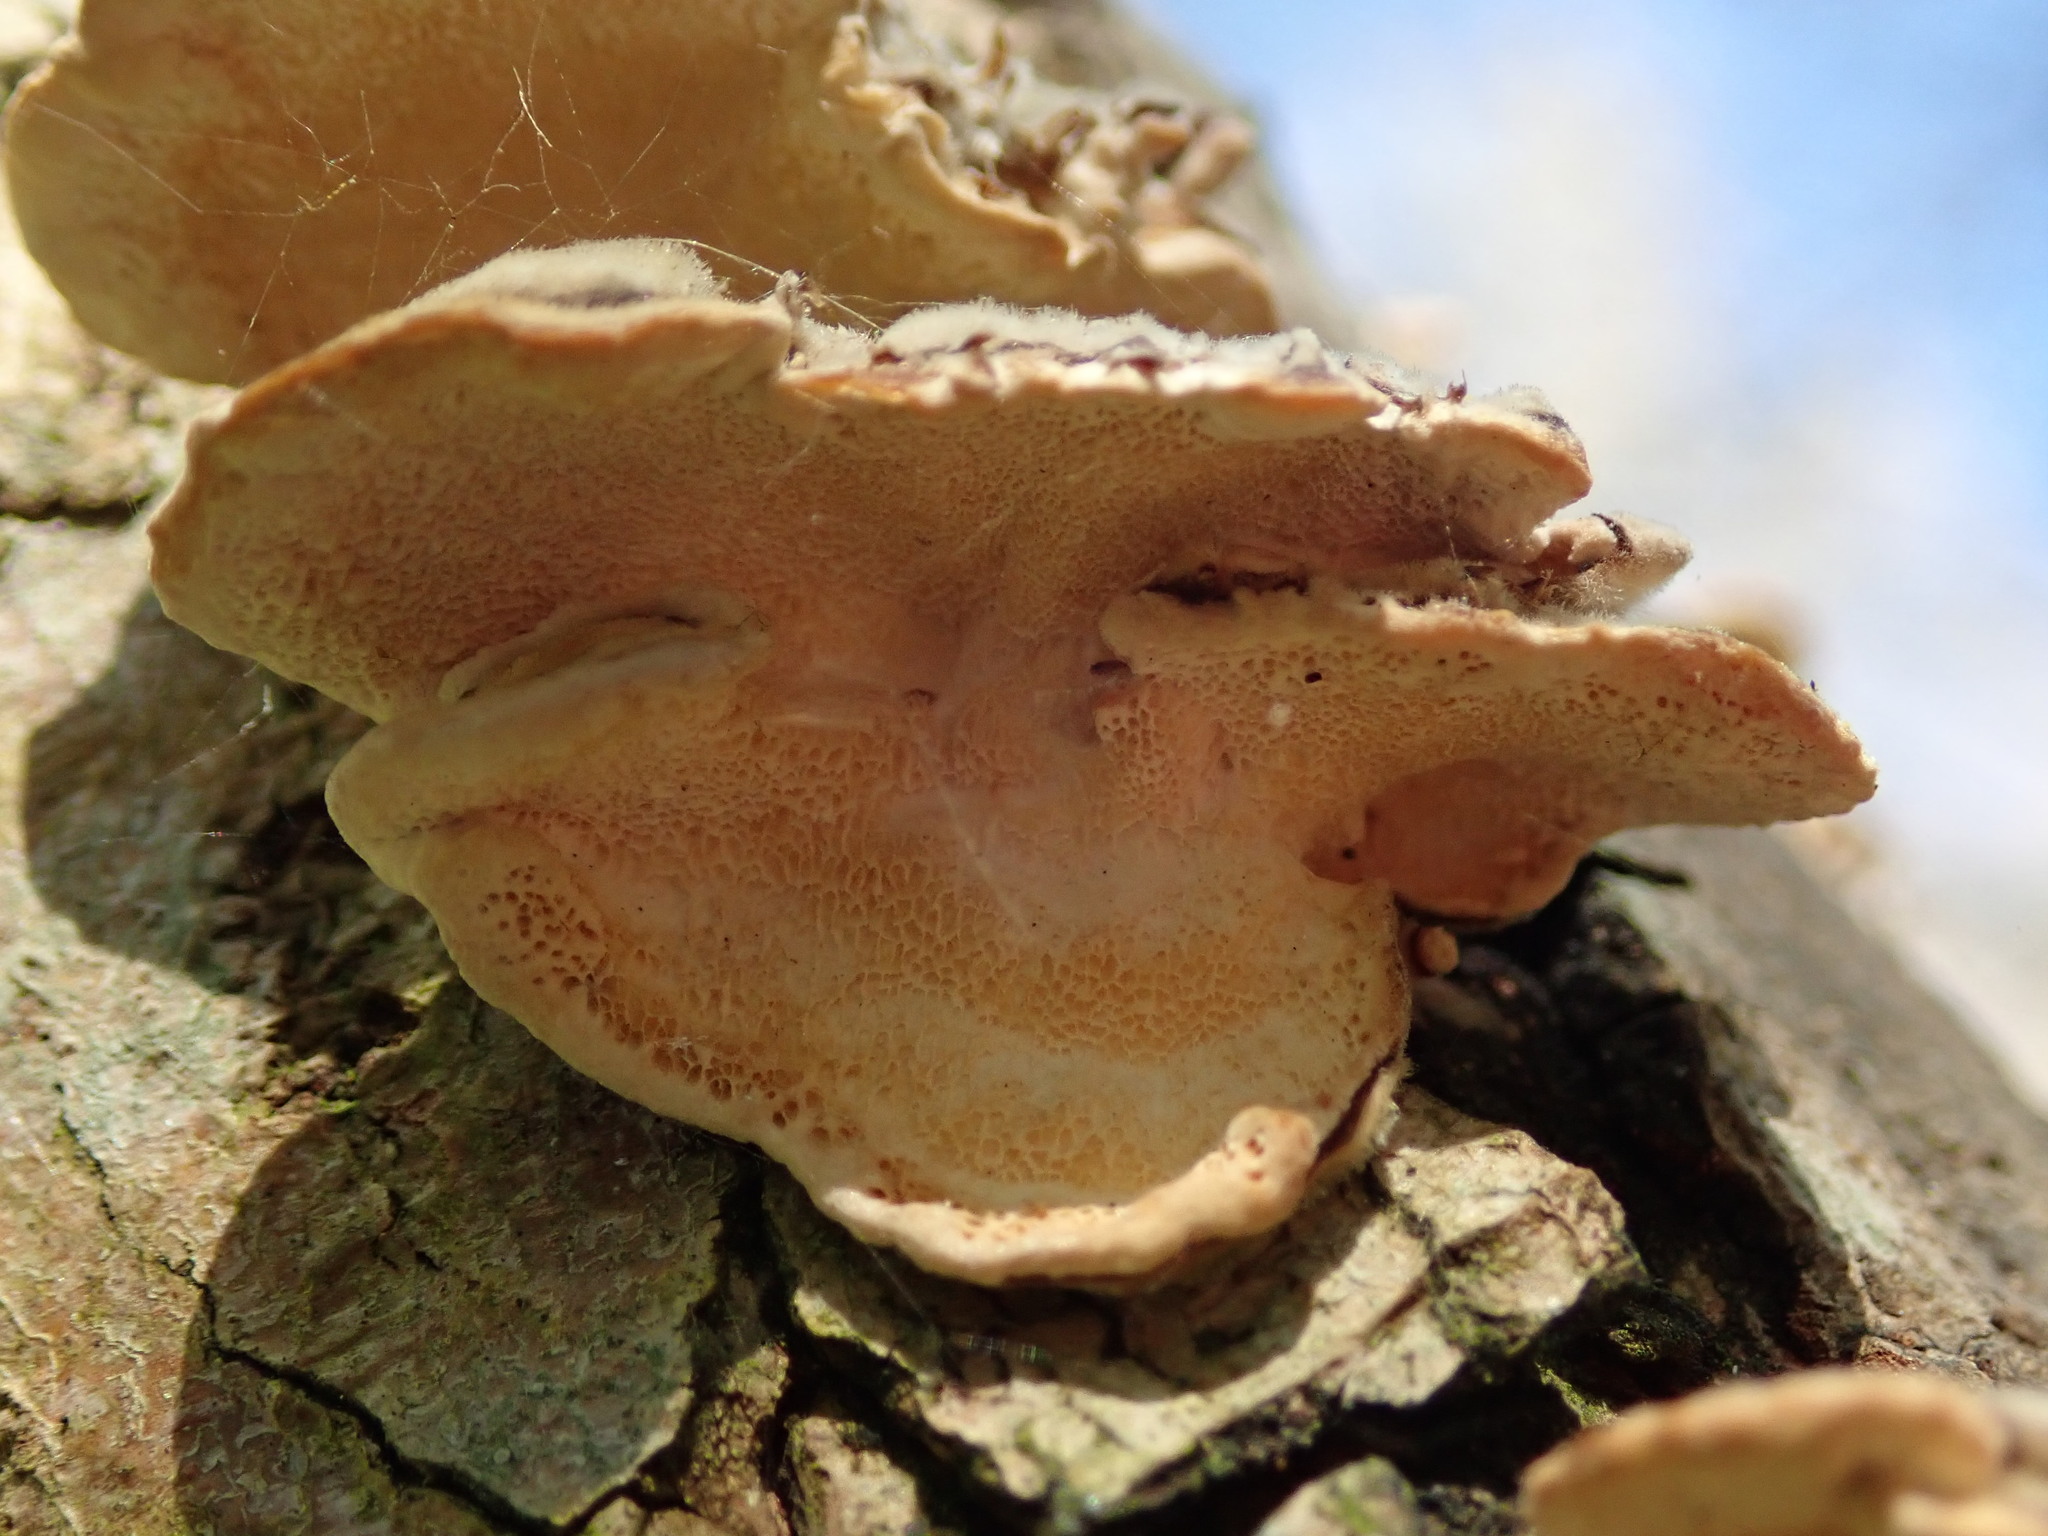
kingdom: Fungi
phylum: Basidiomycota
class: Agaricomycetes
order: Polyporales
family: Polyporaceae
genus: Trametes
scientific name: Trametes versicolor
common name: Turkeytail
